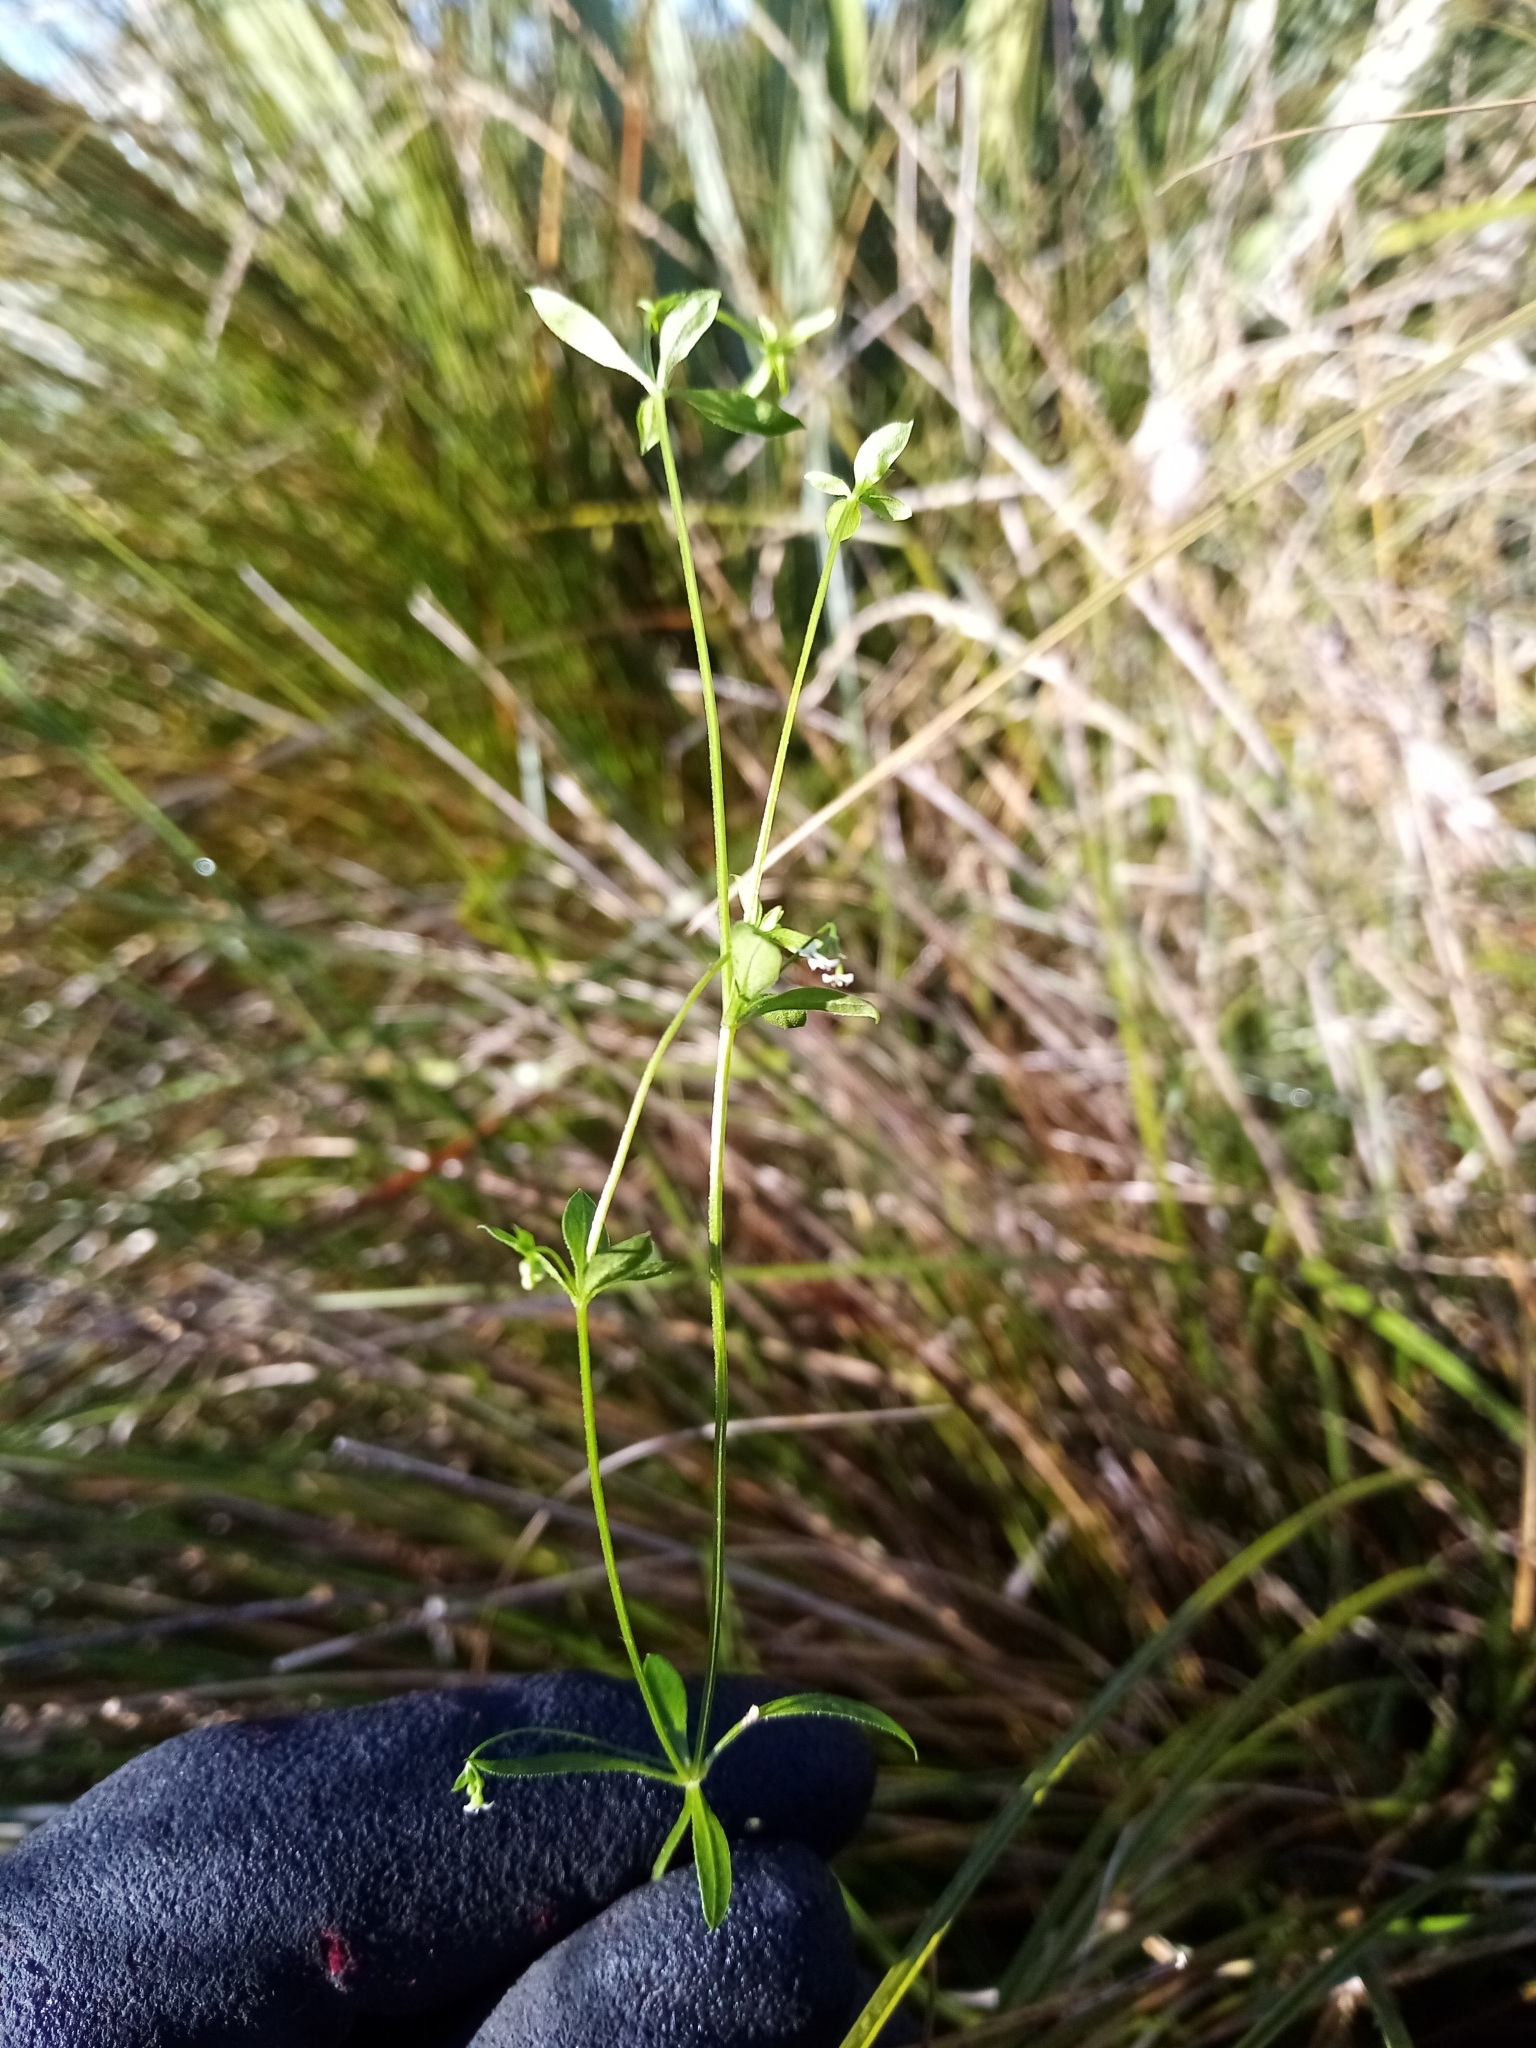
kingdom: Plantae
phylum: Tracheophyta
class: Magnoliopsida
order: Gentianales
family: Rubiaceae
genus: Galium
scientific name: Galium trilobum
